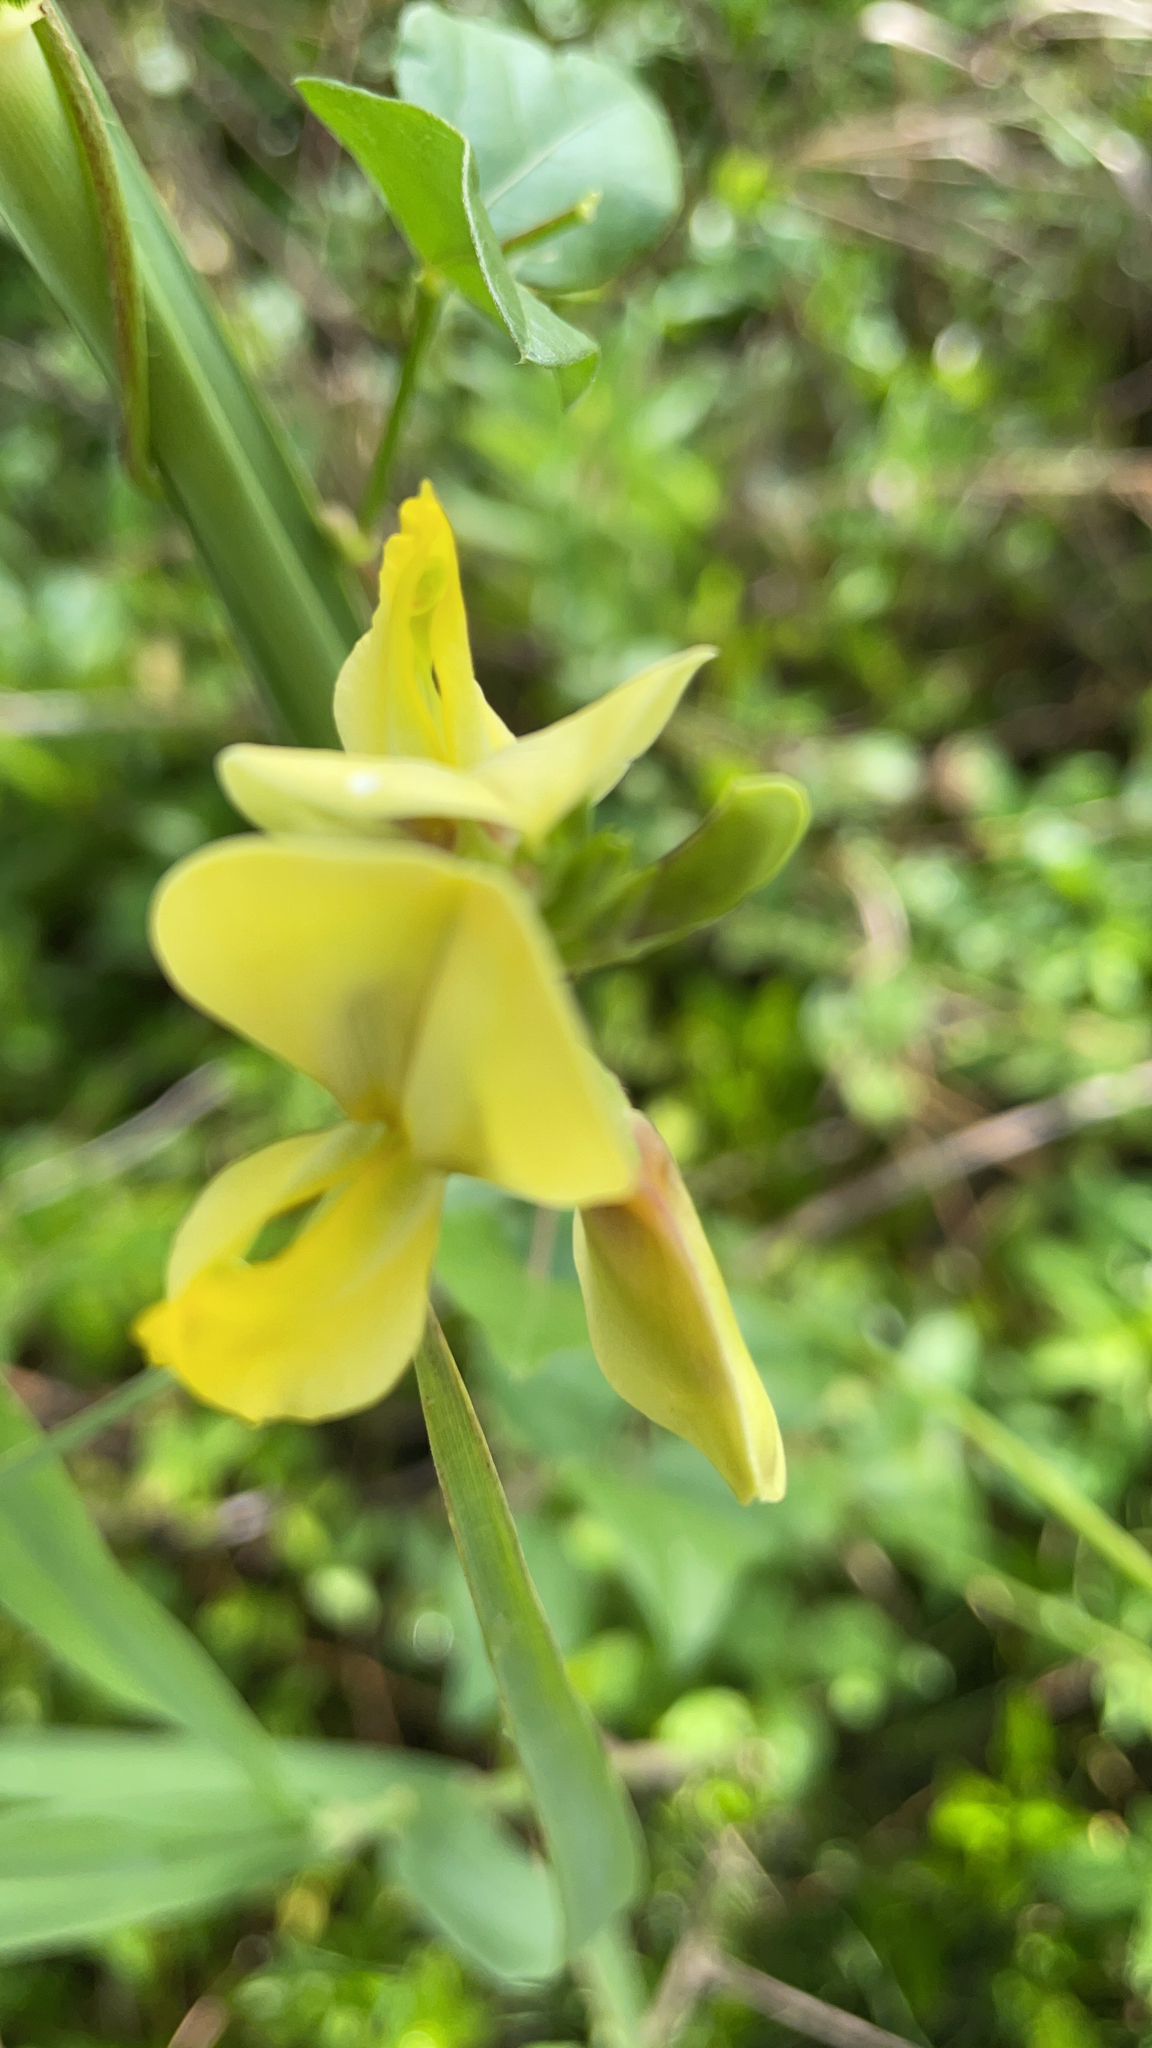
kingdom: Plantae
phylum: Tracheophyta
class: Magnoliopsida
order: Fabales
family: Fabaceae
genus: Vigna
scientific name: Vigna luteola
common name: Hairypod cowpea
